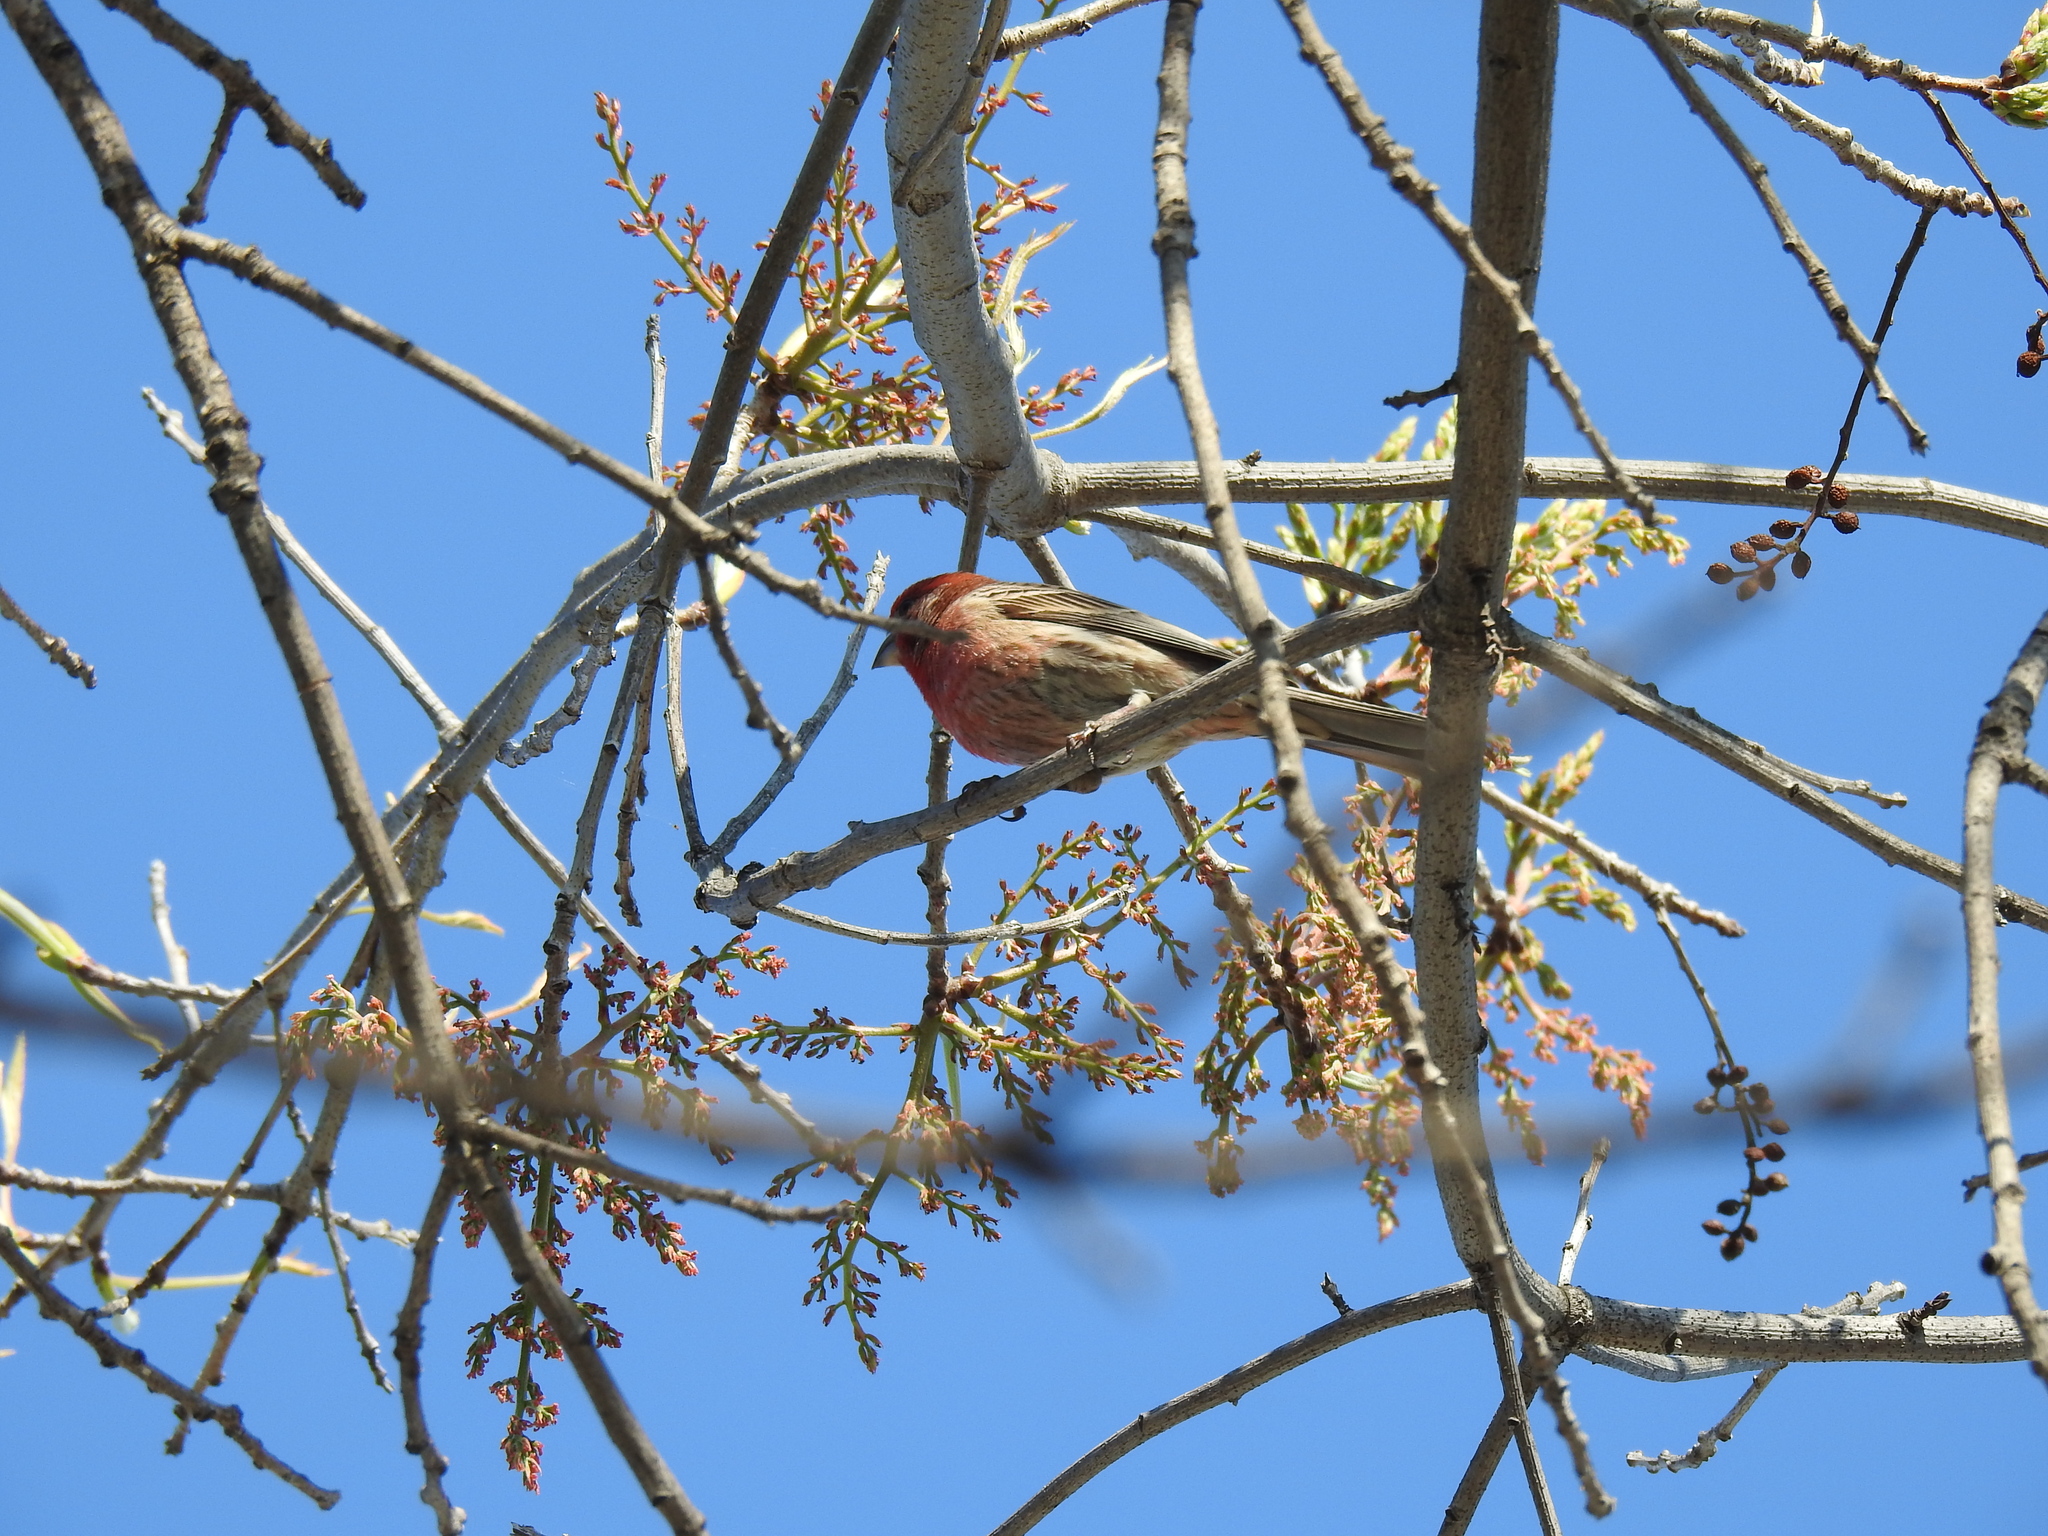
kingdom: Animalia
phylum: Chordata
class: Aves
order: Passeriformes
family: Fringillidae
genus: Haemorhous
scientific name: Haemorhous mexicanus
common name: House finch
